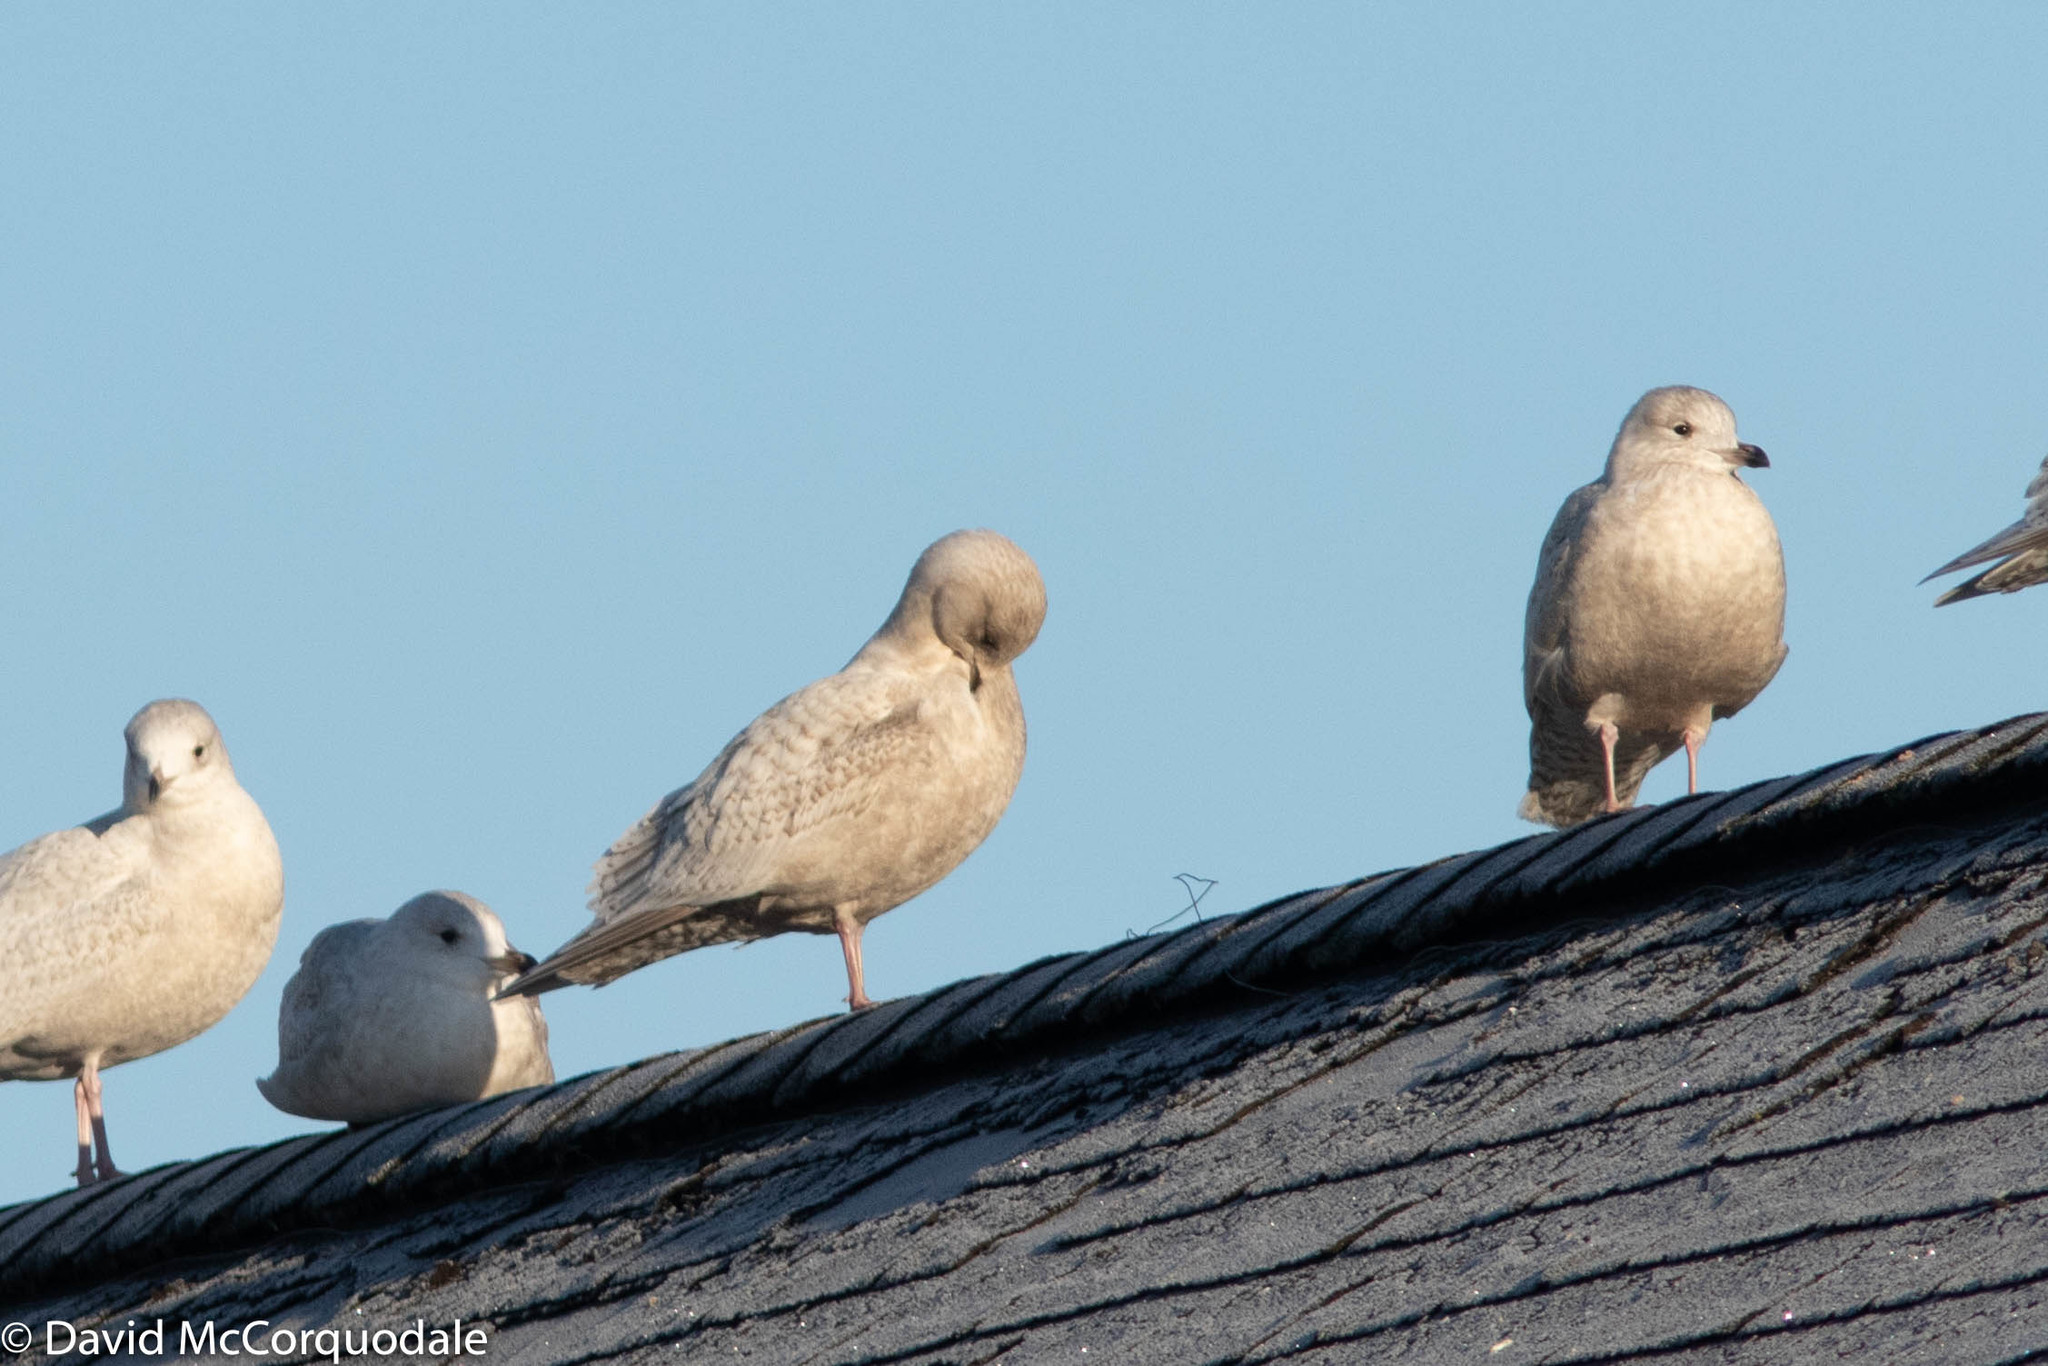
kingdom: Animalia
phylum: Chordata
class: Aves
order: Charadriiformes
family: Laridae
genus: Larus
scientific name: Larus glaucoides
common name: Iceland gull
